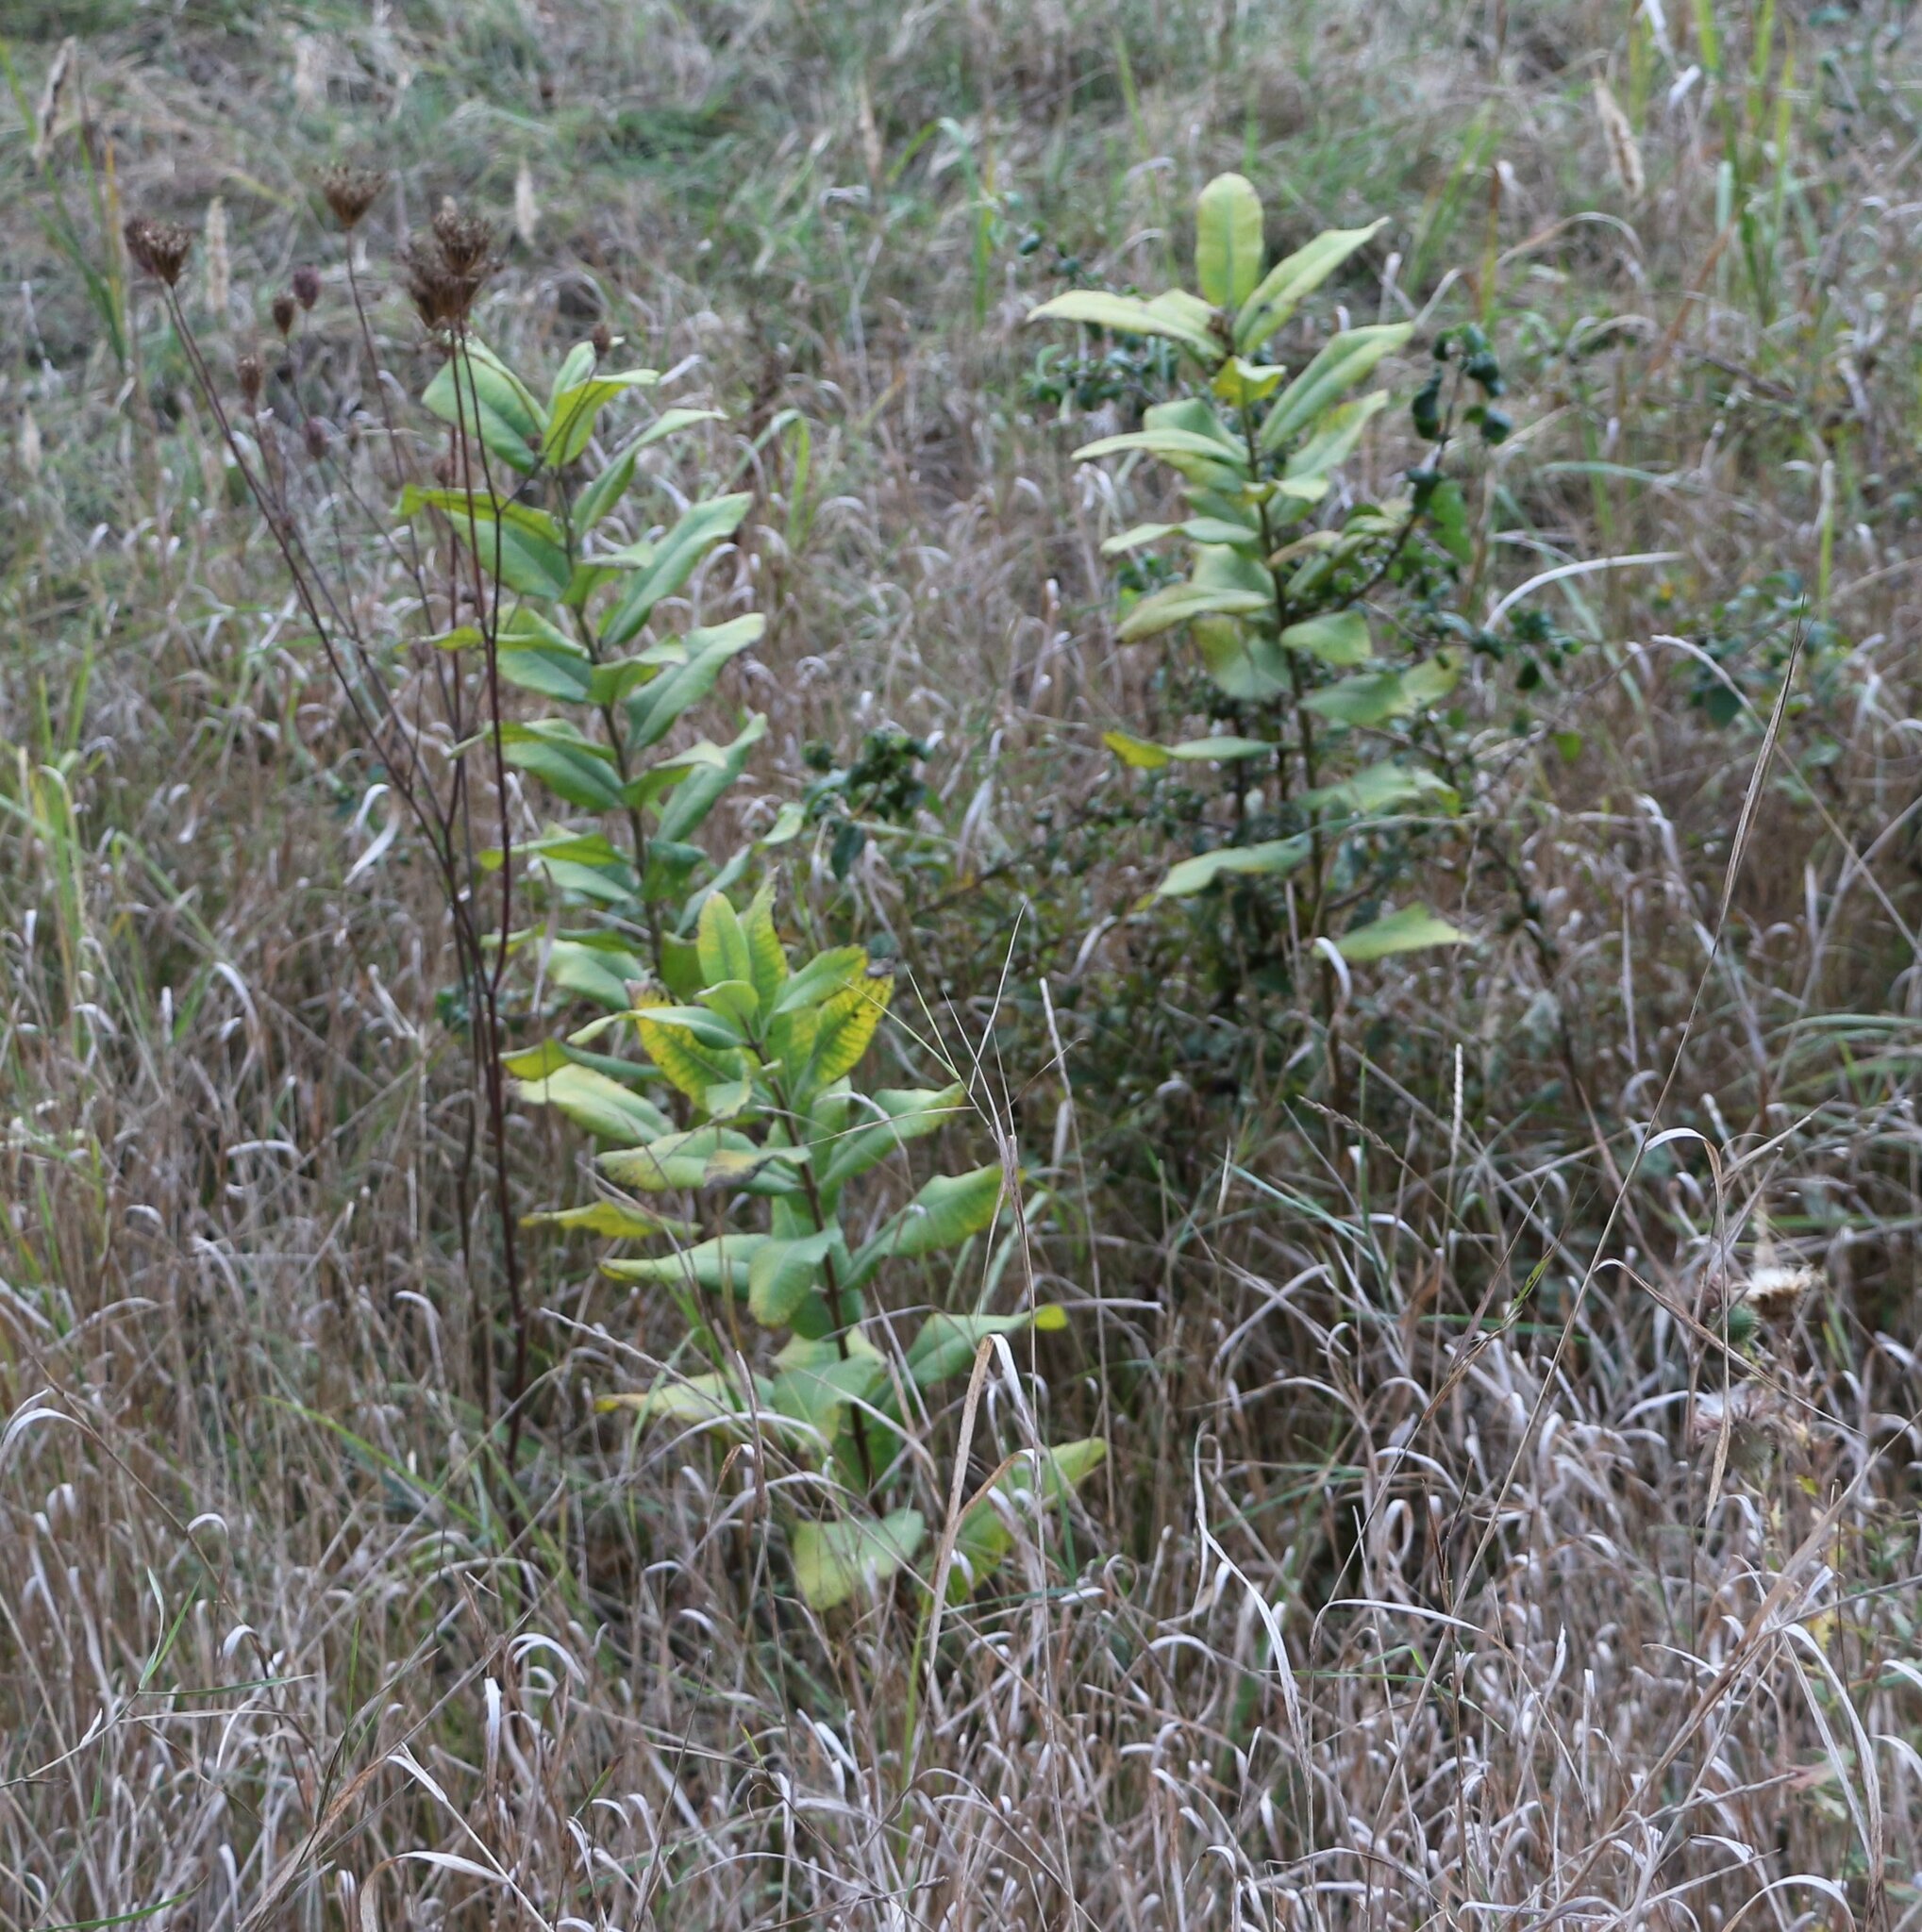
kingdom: Plantae
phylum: Tracheophyta
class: Magnoliopsida
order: Gentianales
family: Apocynaceae
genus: Asclepias
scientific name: Asclepias syriaca
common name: Common milkweed
